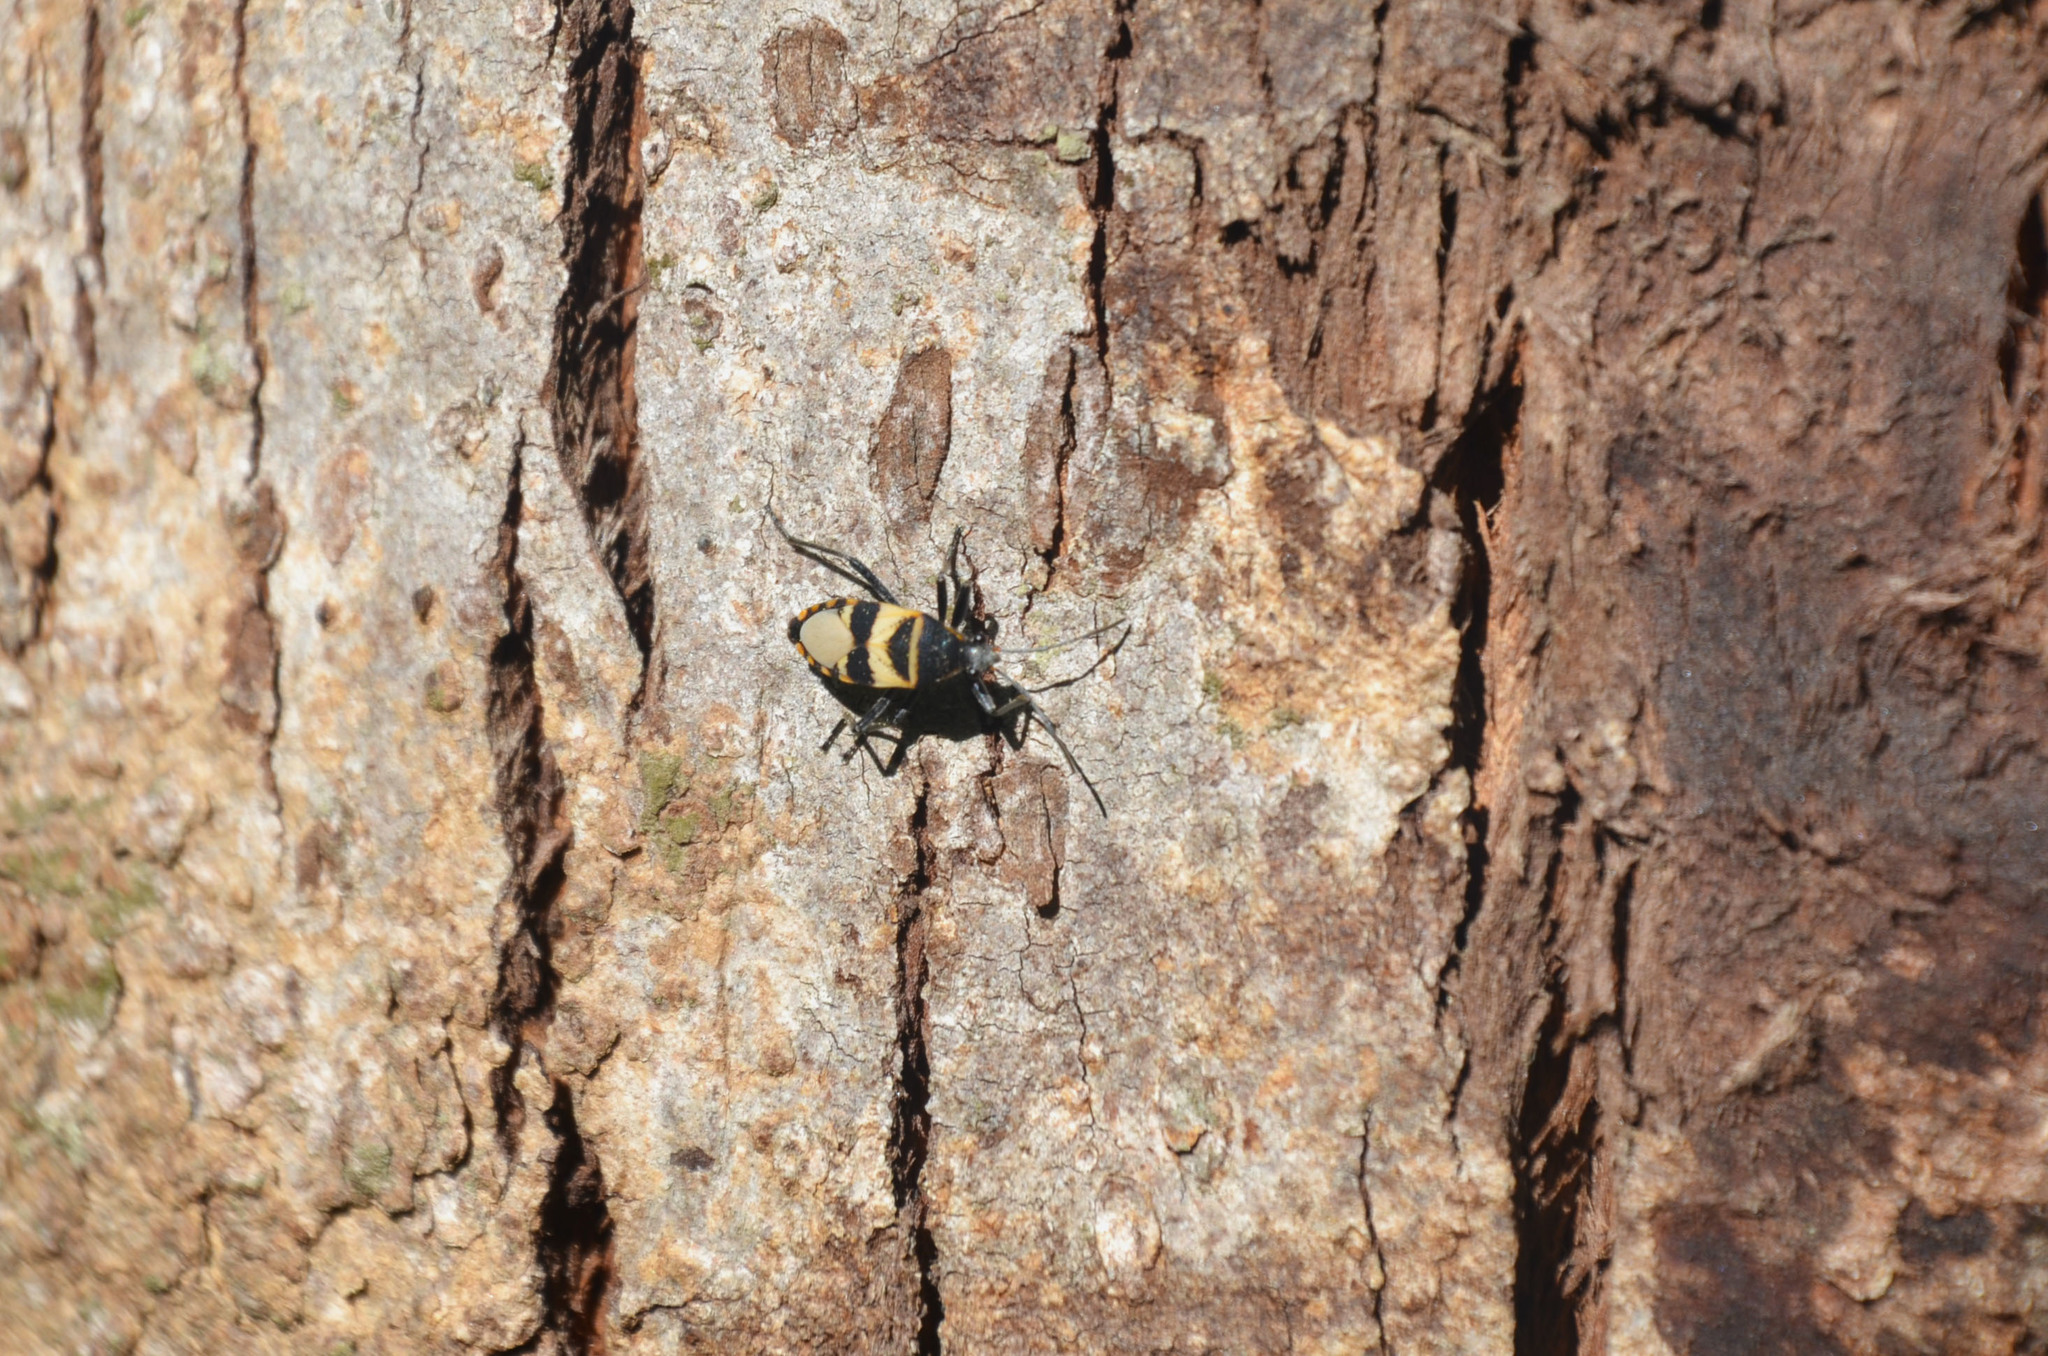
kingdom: Animalia
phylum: Arthropoda
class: Insecta
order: Hemiptera
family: Largidae
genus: Largus
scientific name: Largus fasciatus
